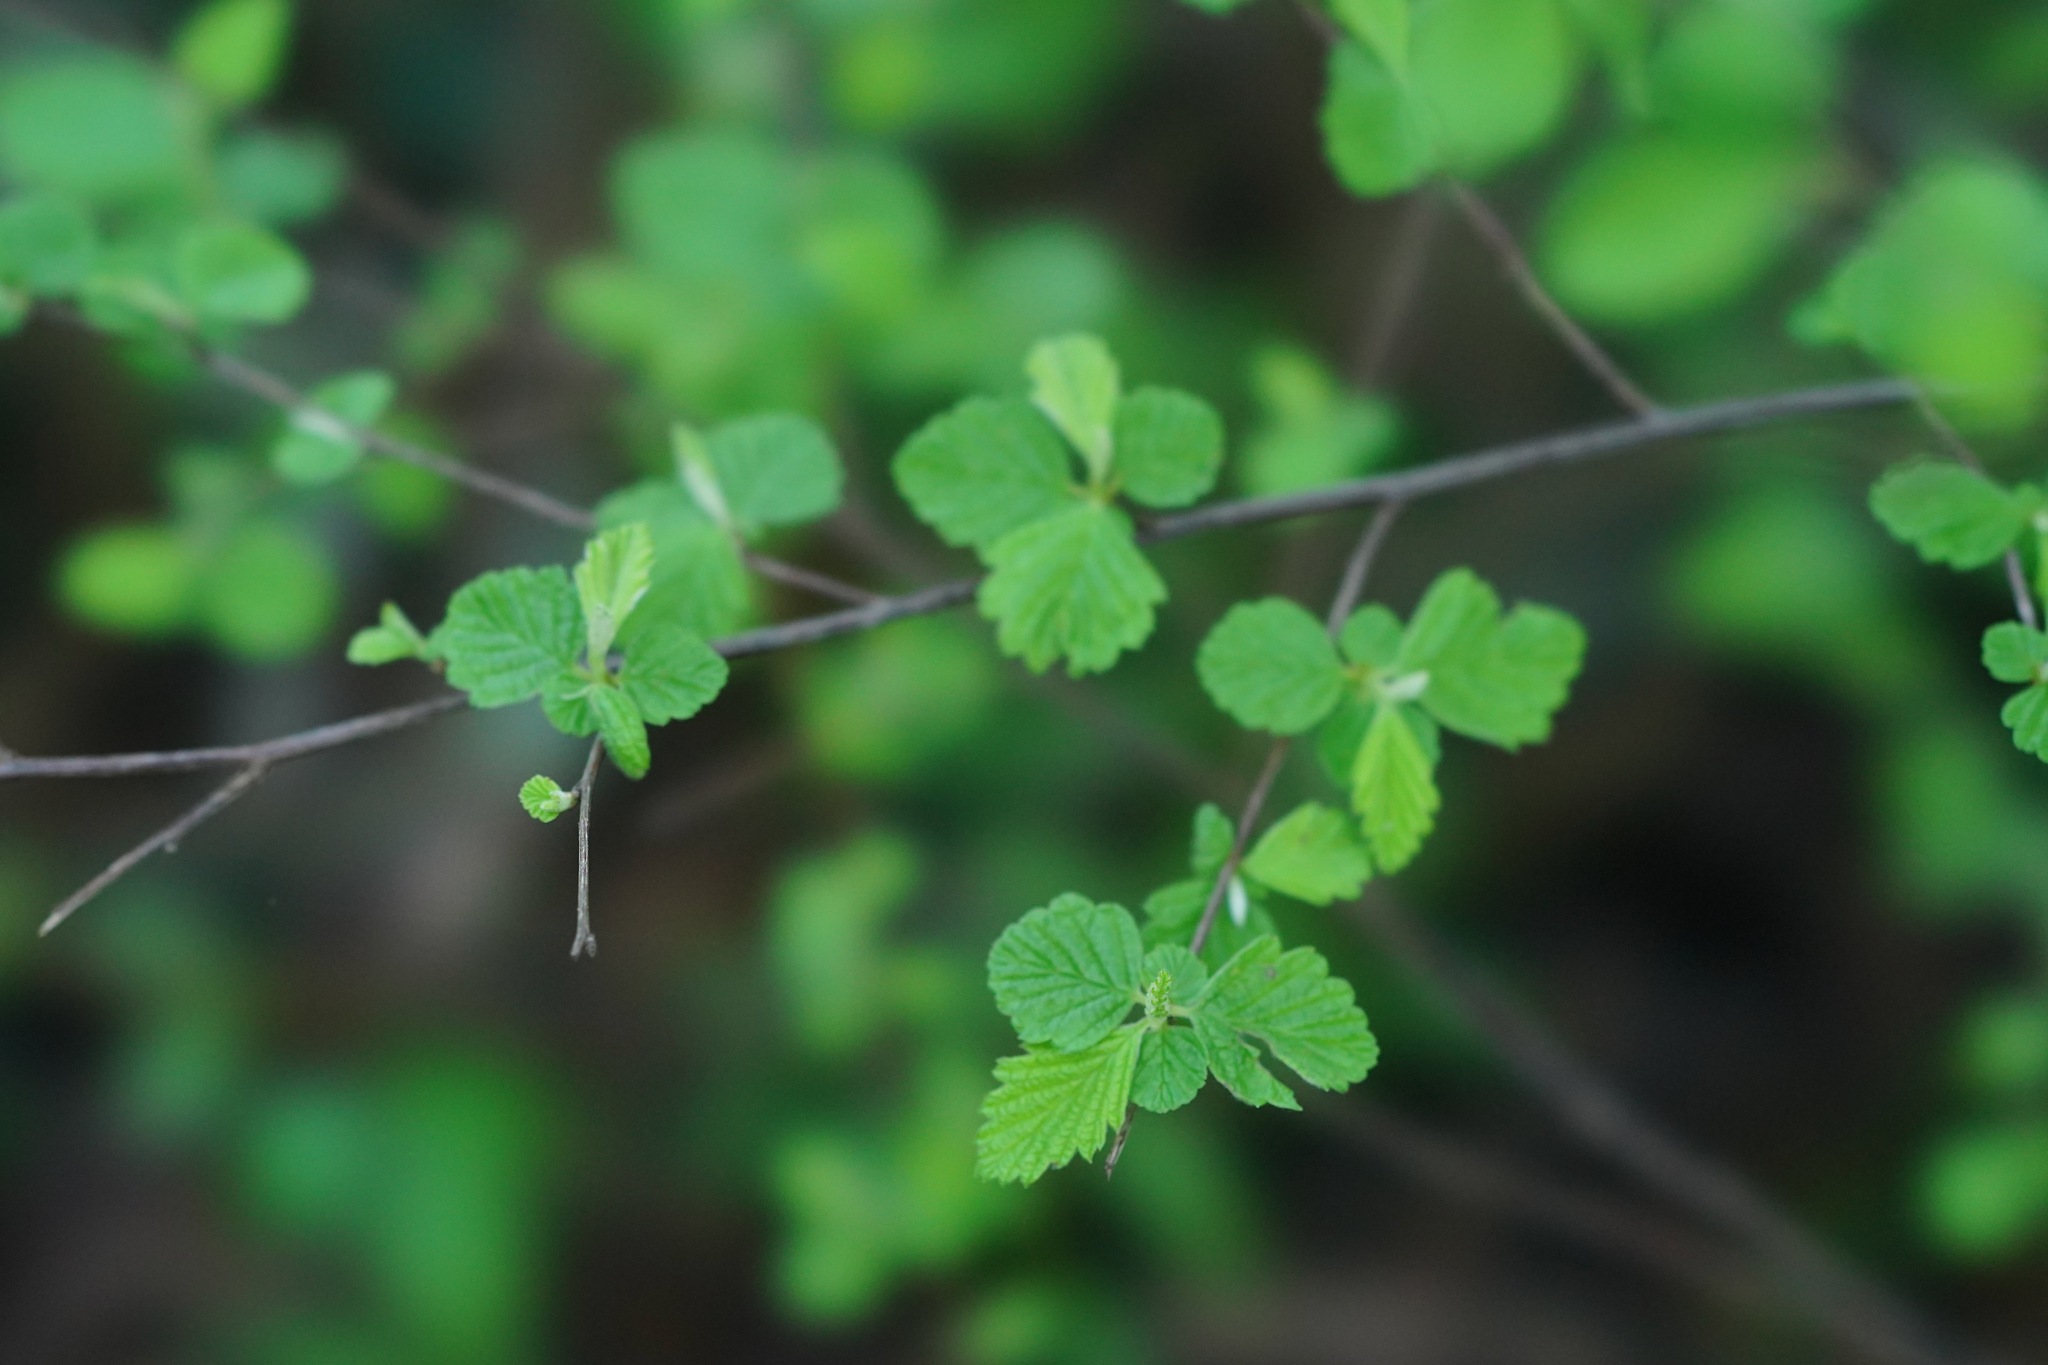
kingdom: Plantae
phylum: Tracheophyta
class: Magnoliopsida
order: Rosales
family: Rosaceae
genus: Holodiscus
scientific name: Holodiscus discolor
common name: Oceanspray
